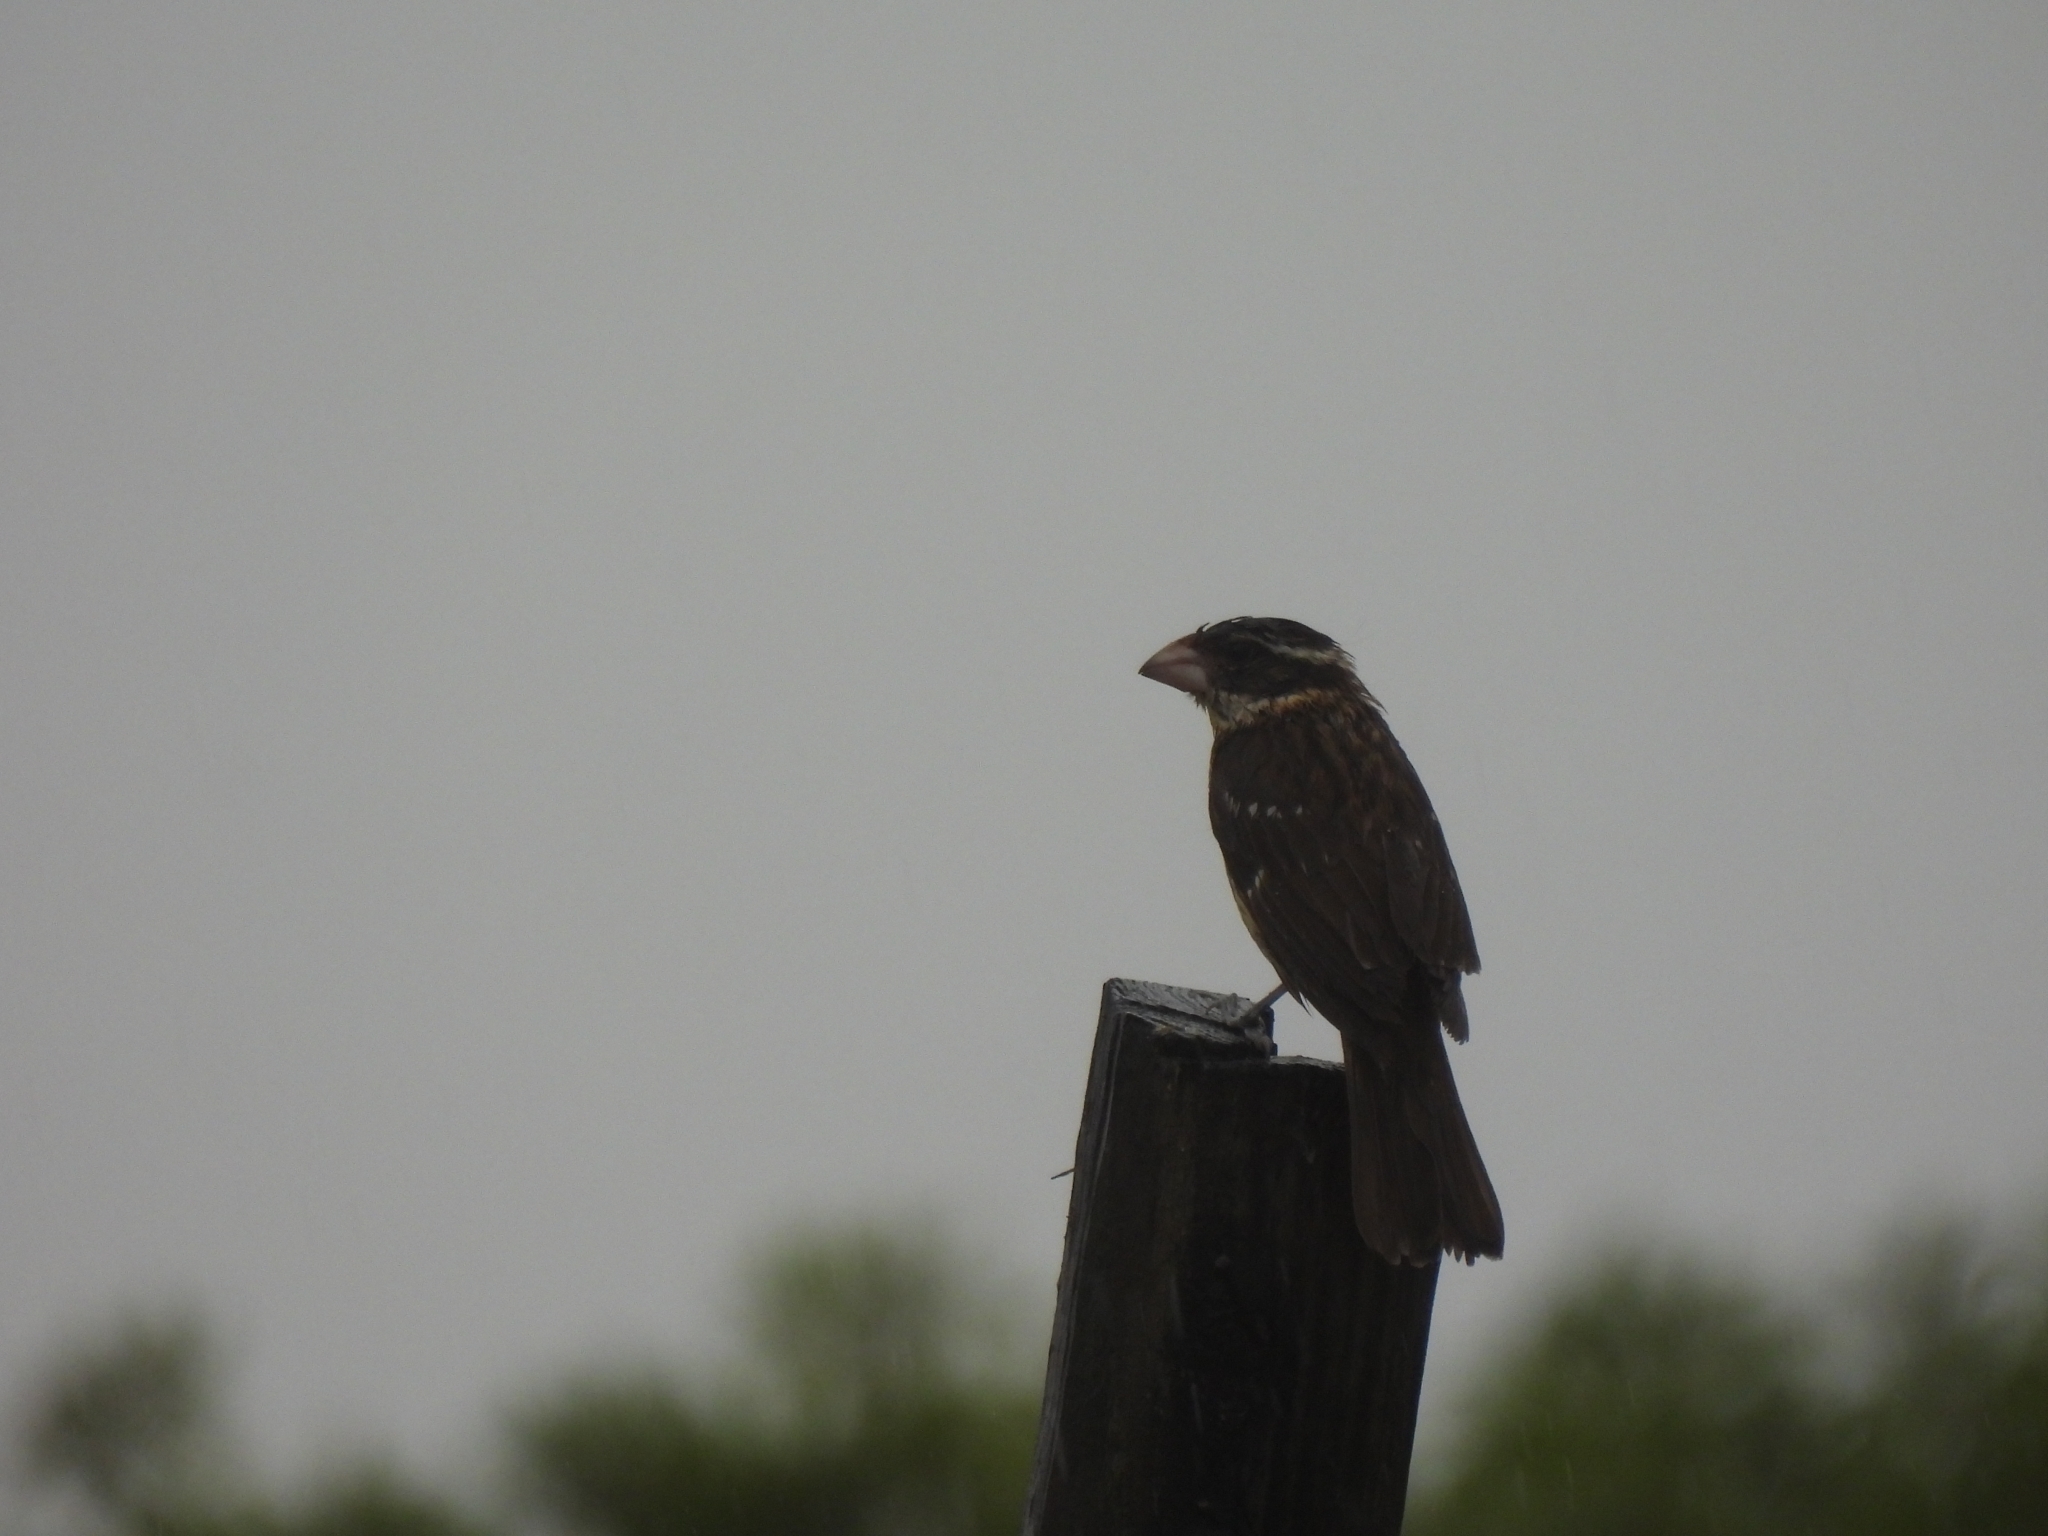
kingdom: Animalia
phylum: Chordata
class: Aves
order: Passeriformes
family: Cardinalidae
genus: Pheucticus
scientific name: Pheucticus ludovicianus
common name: Rose-breasted grosbeak
